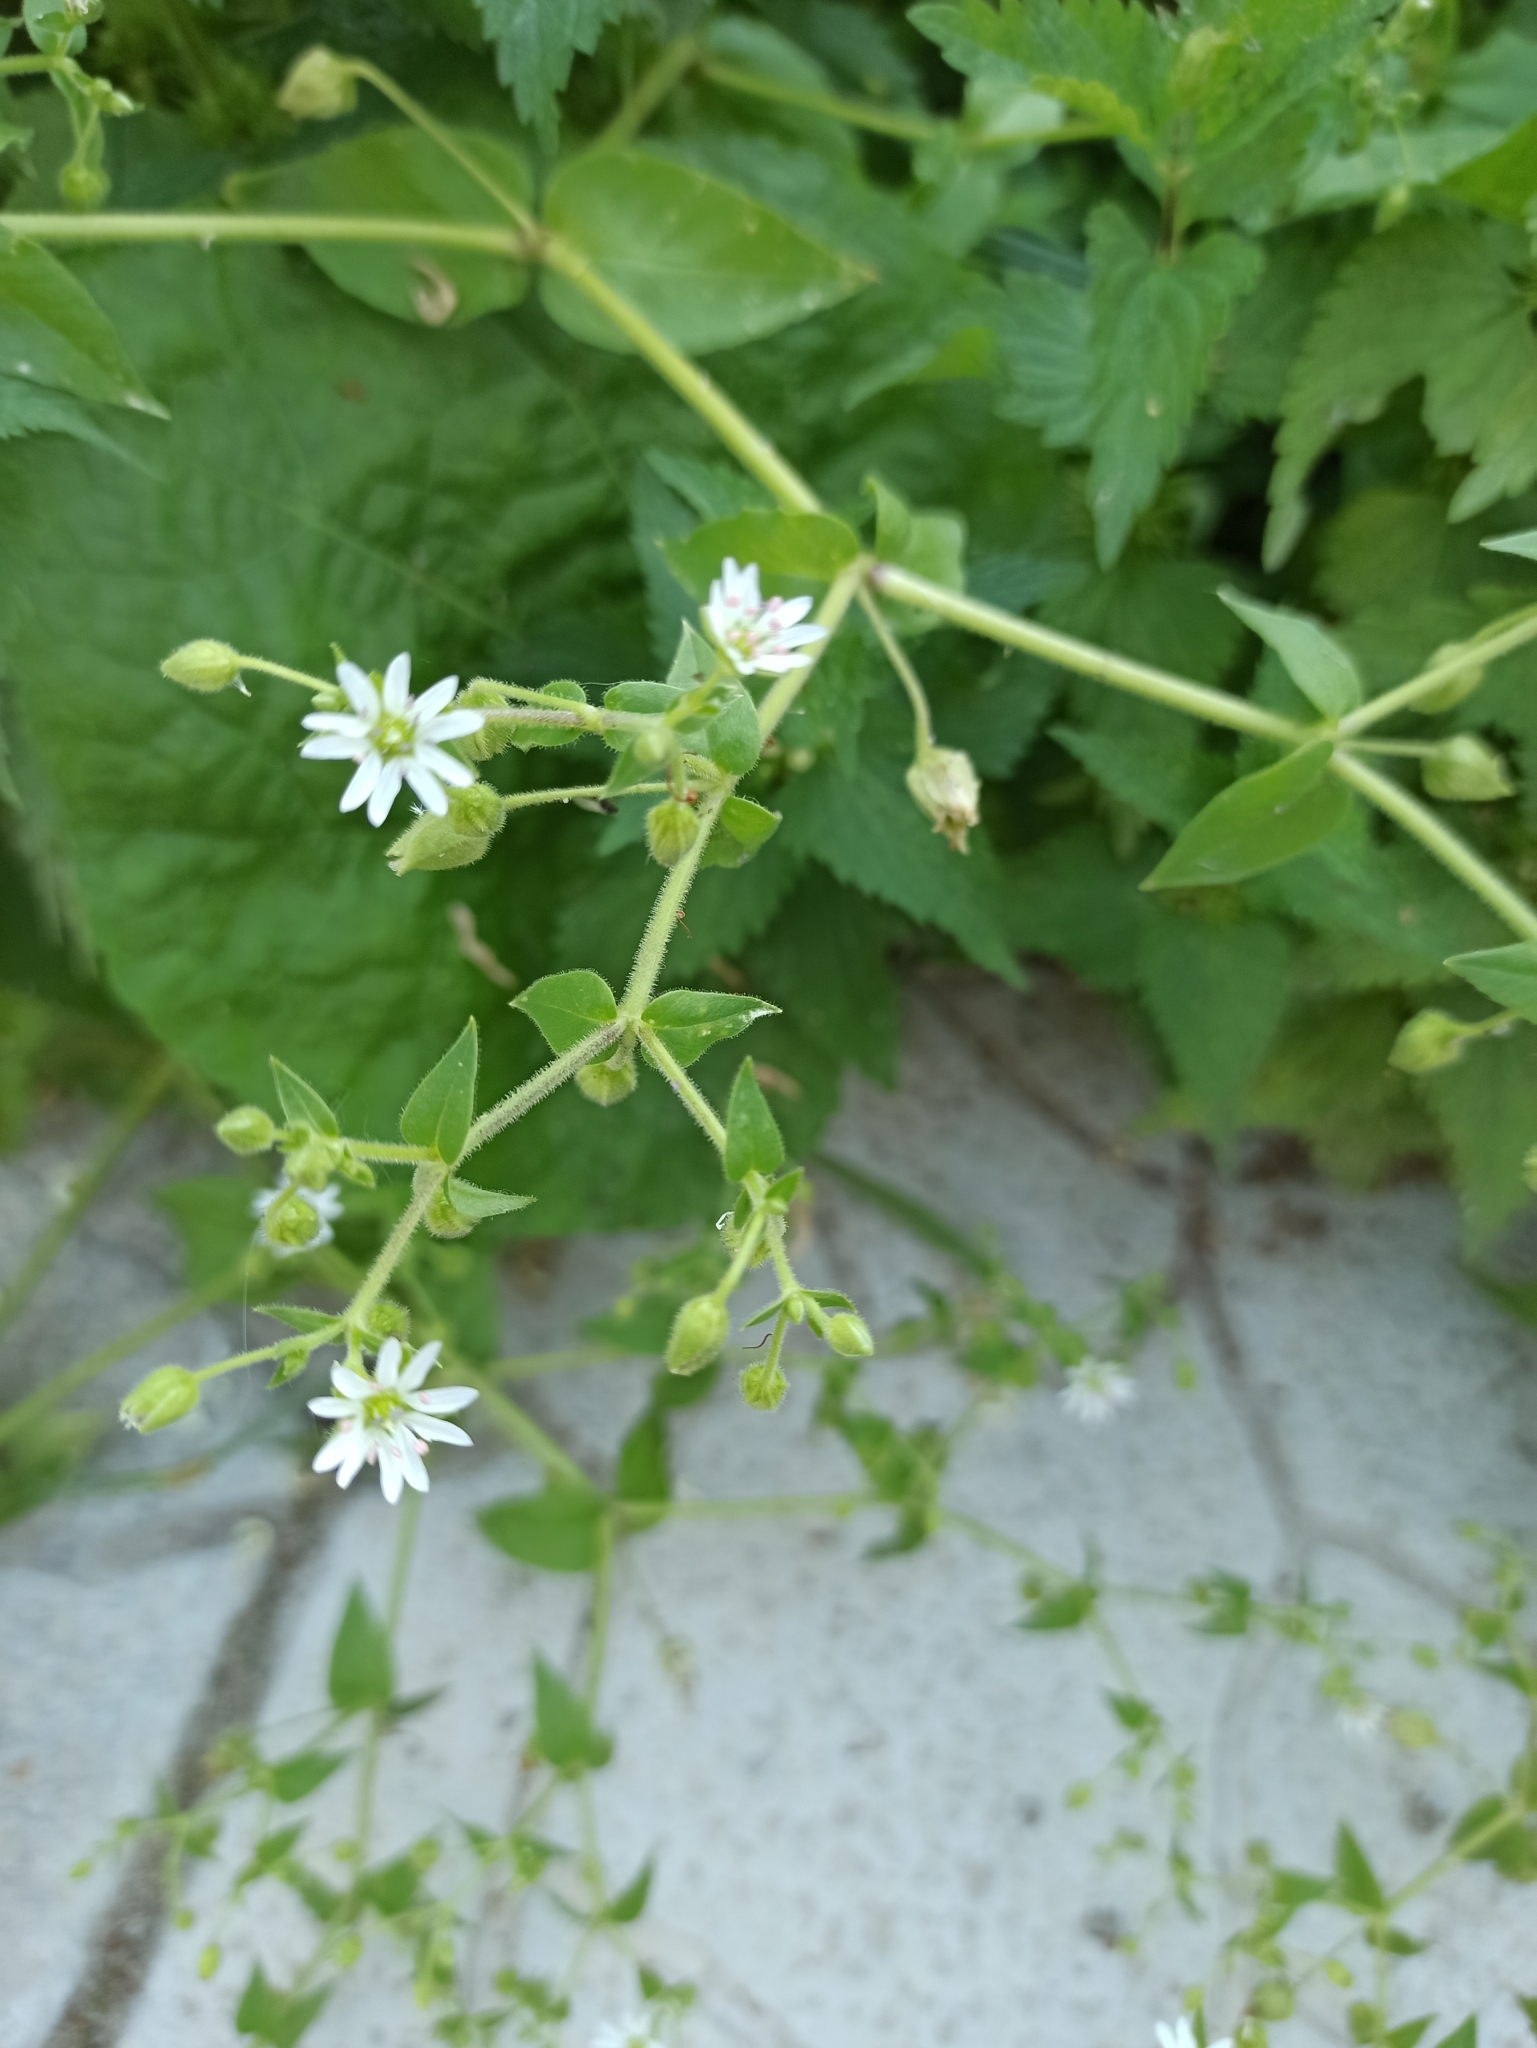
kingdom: Plantae
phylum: Tracheophyta
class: Magnoliopsida
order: Caryophyllales
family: Caryophyllaceae
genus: Stellaria
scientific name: Stellaria aquatica
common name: Water chickweed
